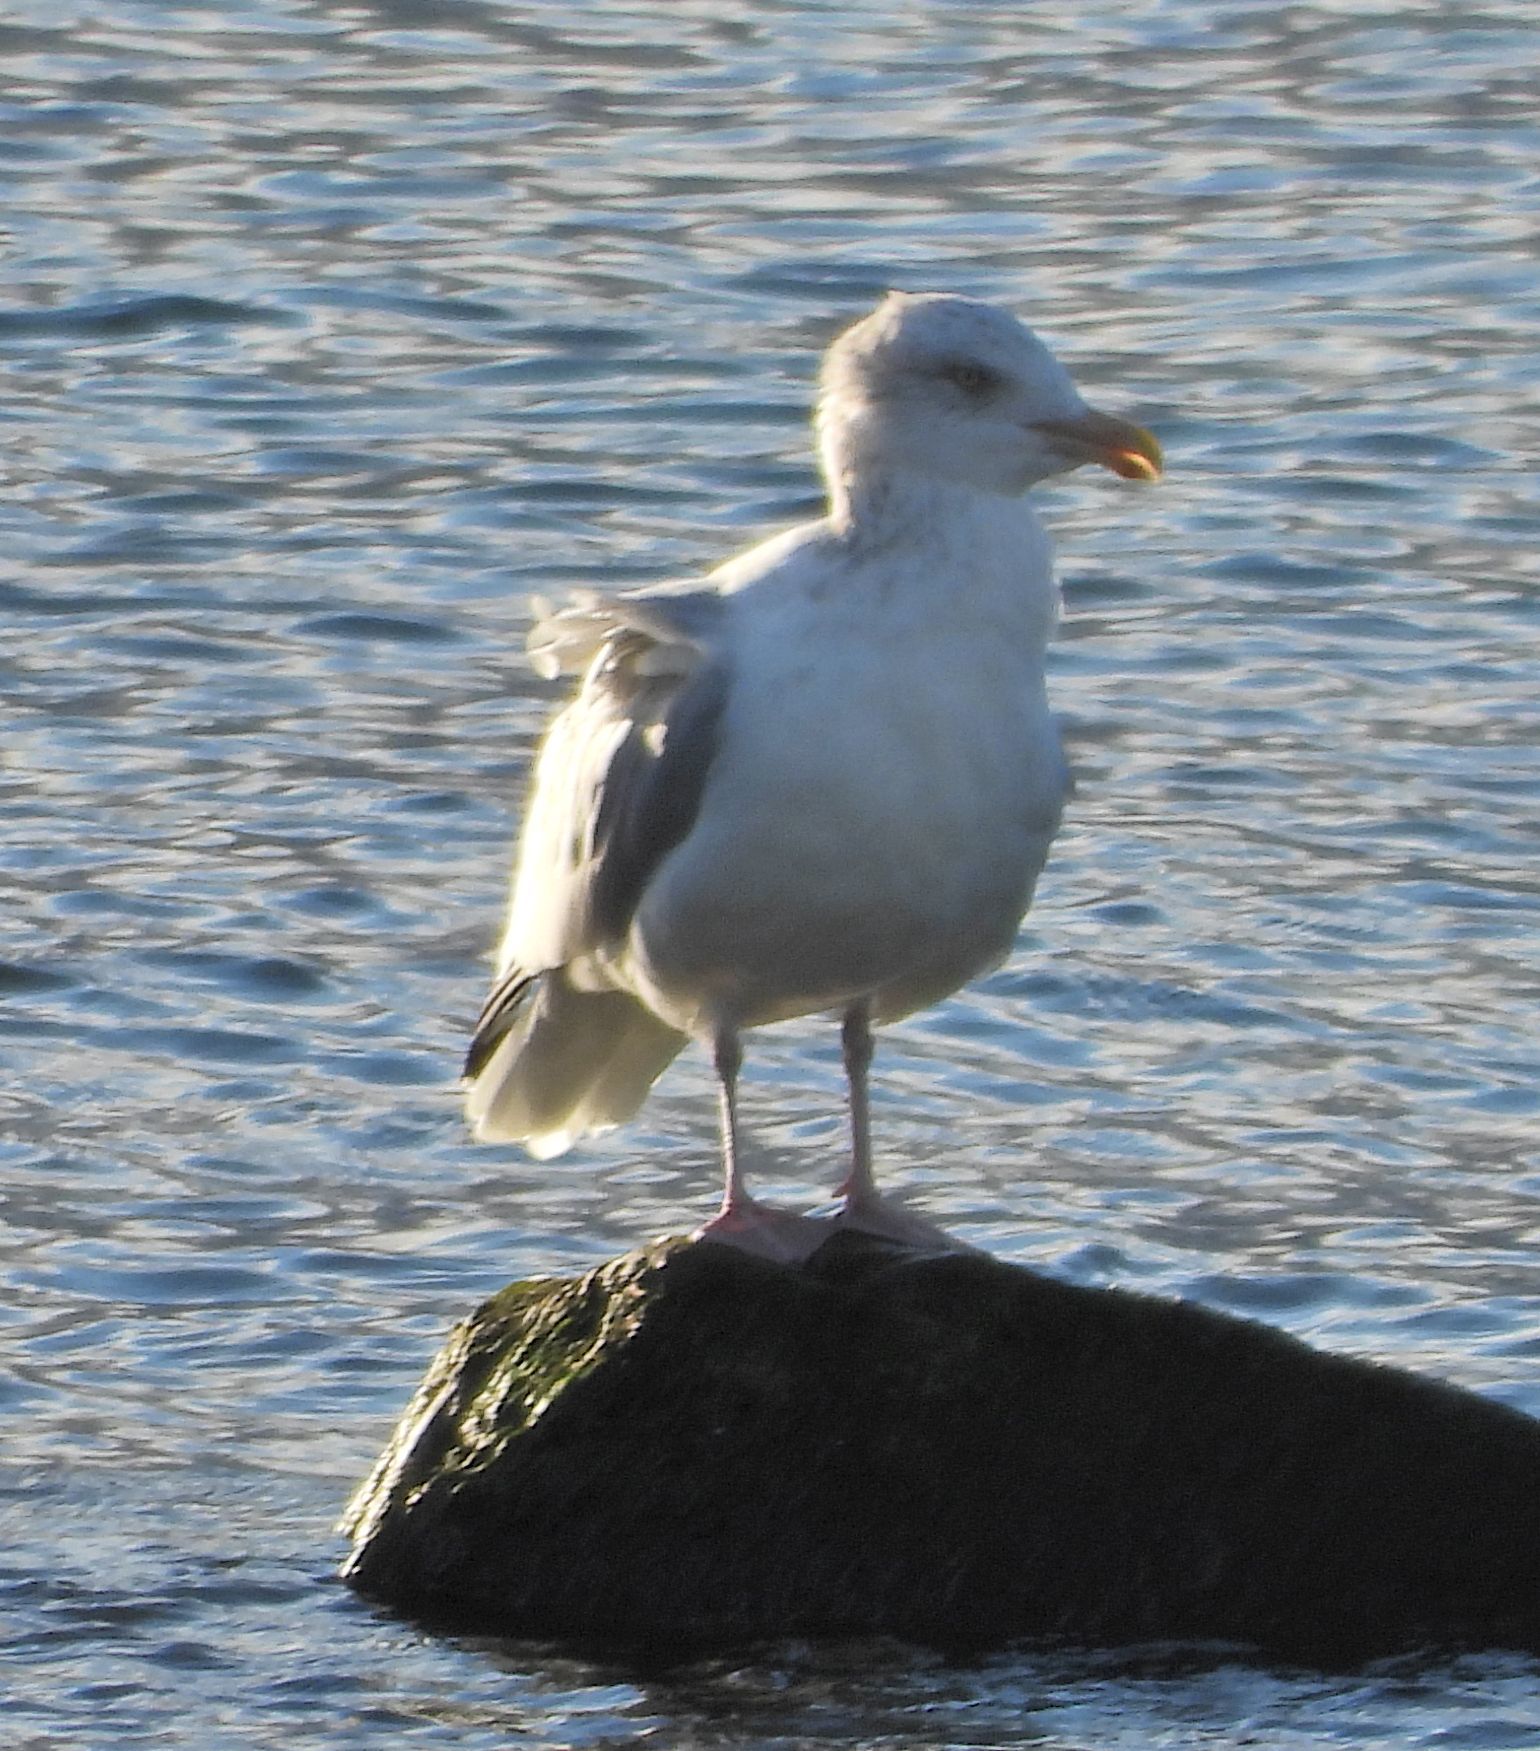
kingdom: Animalia
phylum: Chordata
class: Aves
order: Charadriiformes
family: Laridae
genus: Larus
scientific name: Larus argentatus
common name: Herring gull
